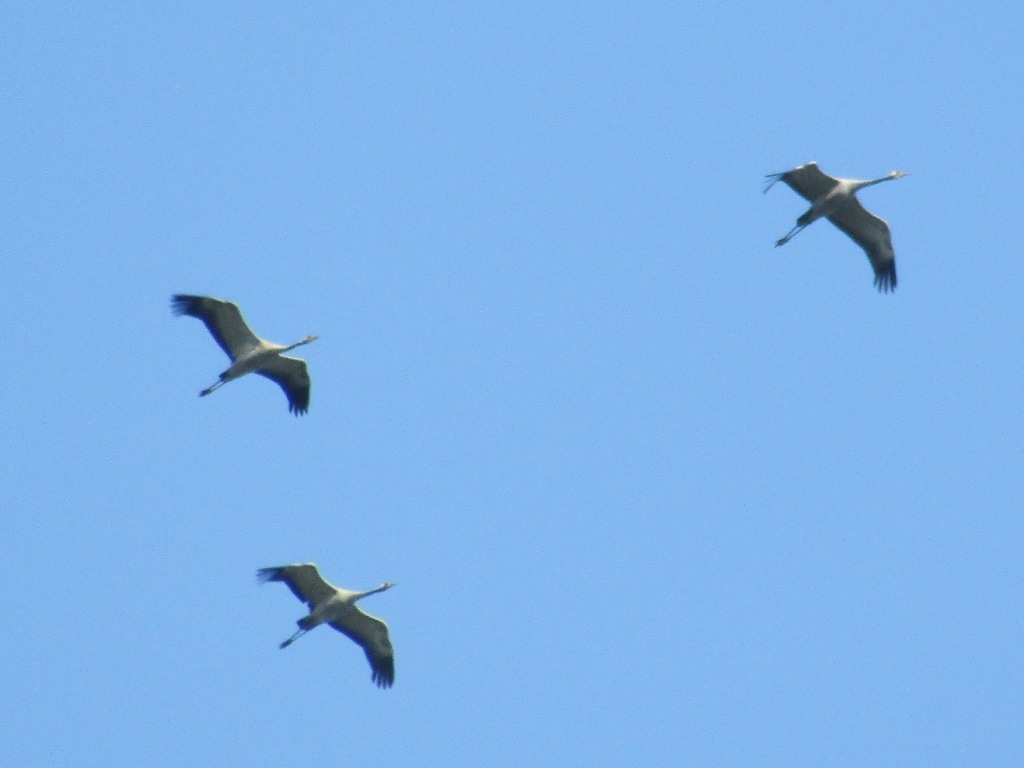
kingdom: Animalia
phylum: Chordata
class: Aves
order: Gruiformes
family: Gruidae
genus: Grus
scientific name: Grus grus
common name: Common crane
